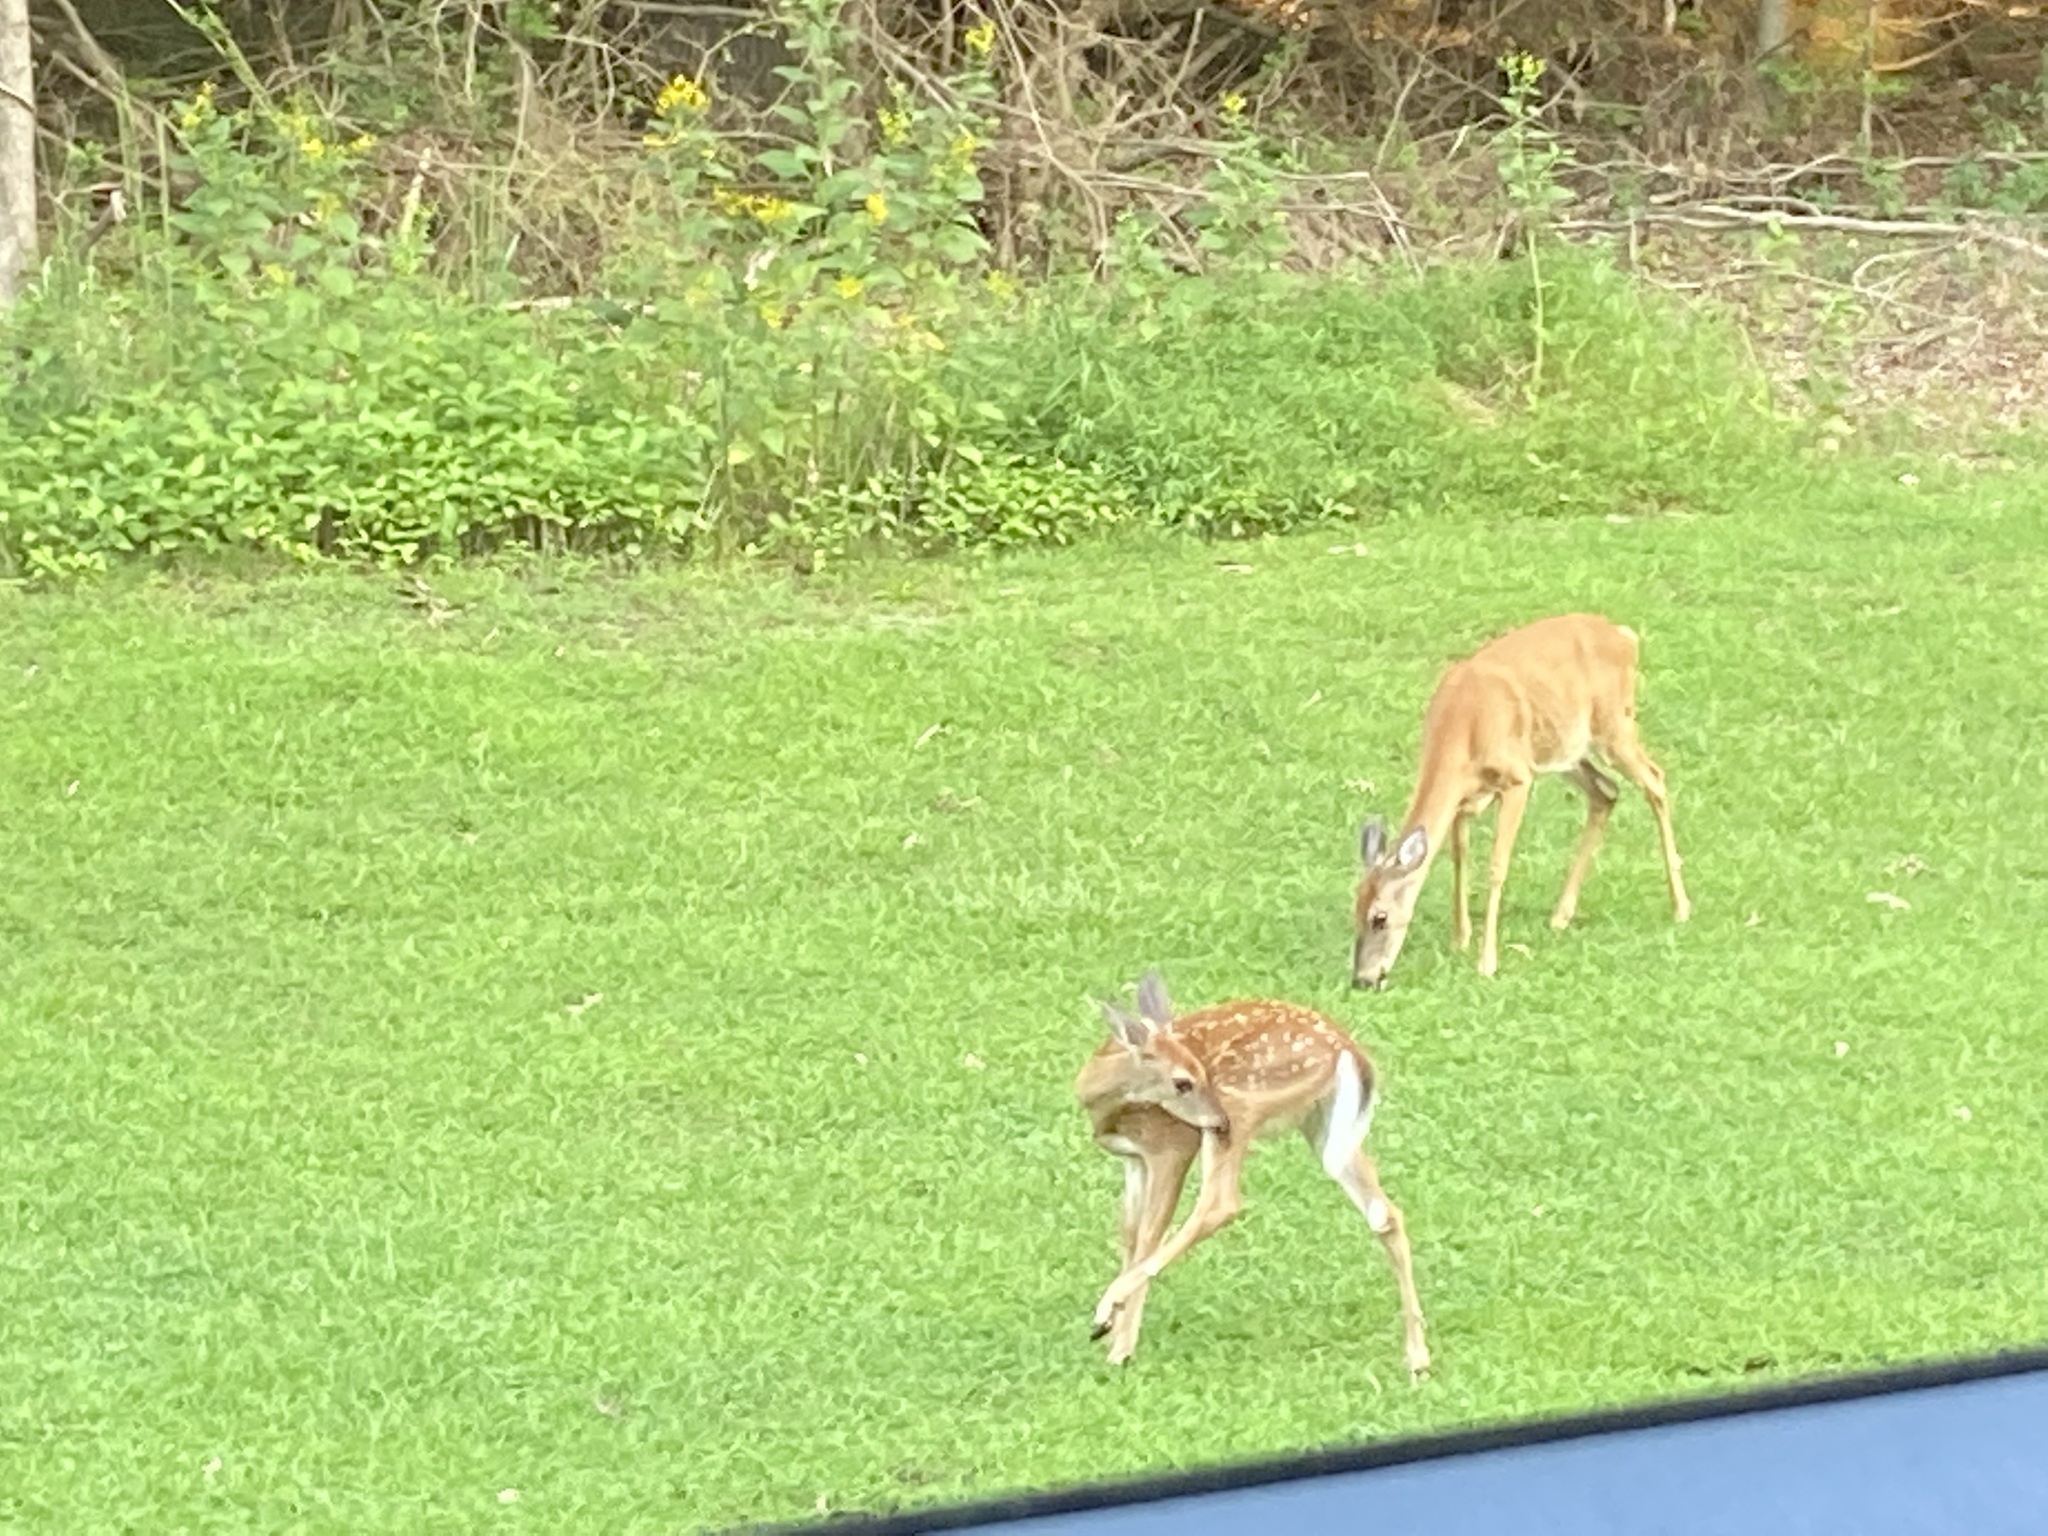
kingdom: Animalia
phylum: Chordata
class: Mammalia
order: Artiodactyla
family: Cervidae
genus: Odocoileus
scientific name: Odocoileus virginianus
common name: White-tailed deer
